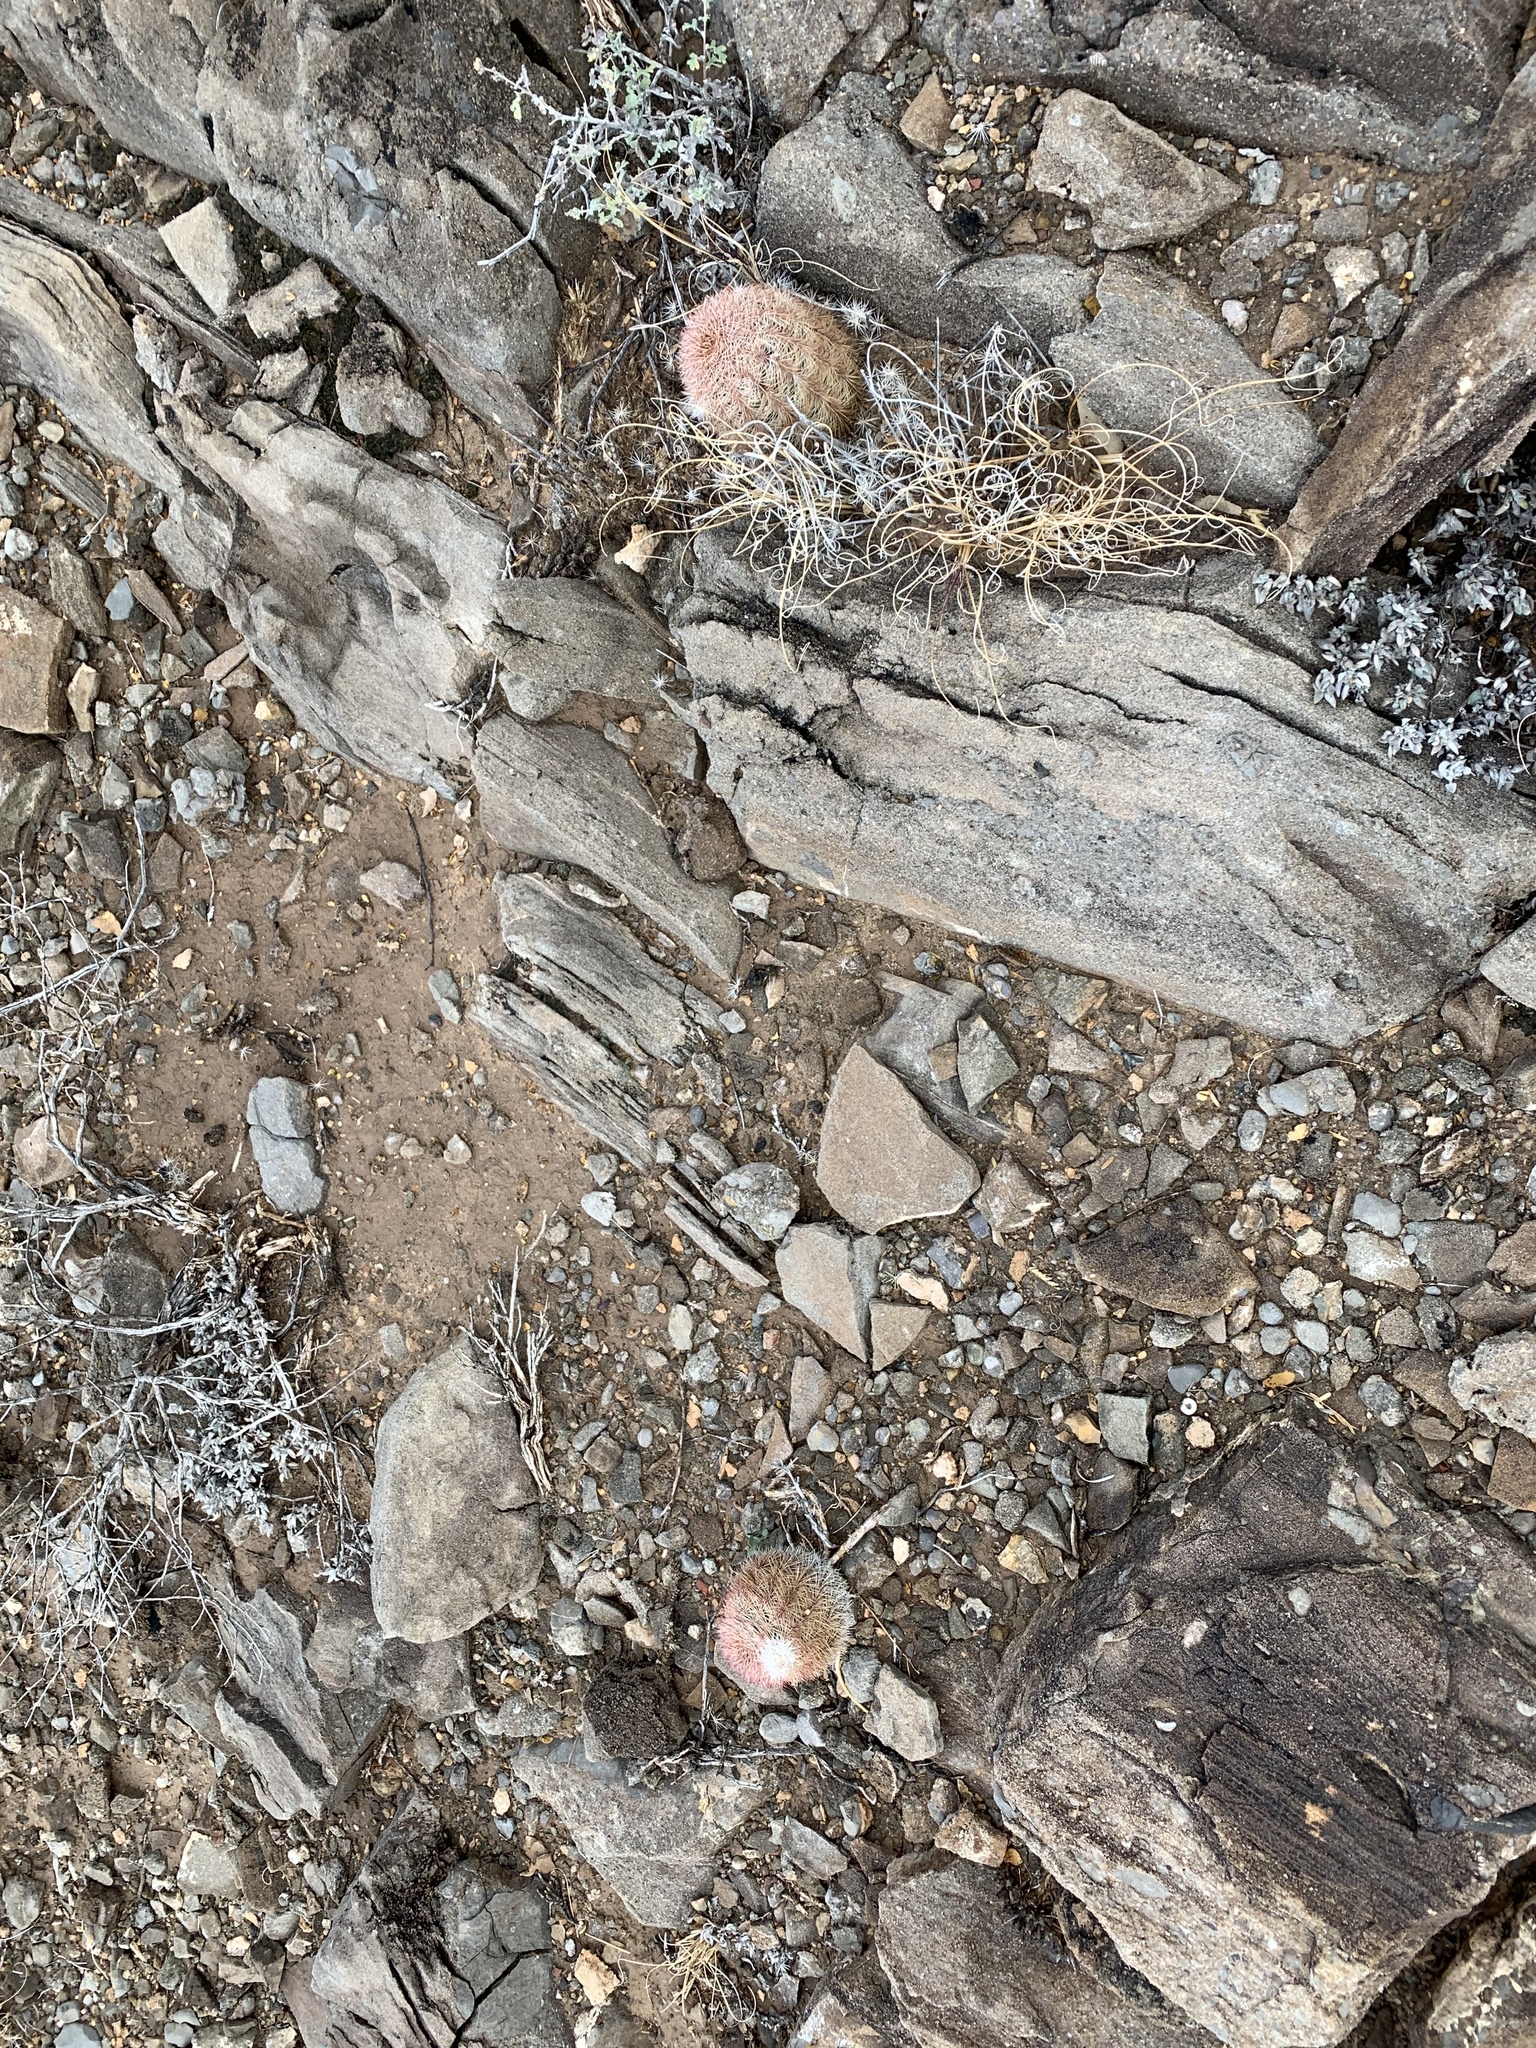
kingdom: Plantae
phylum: Tracheophyta
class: Magnoliopsida
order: Caryophyllales
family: Cactaceae
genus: Echinocereus
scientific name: Echinocereus dasyacanthus
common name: Spiny hedgehog cactus
